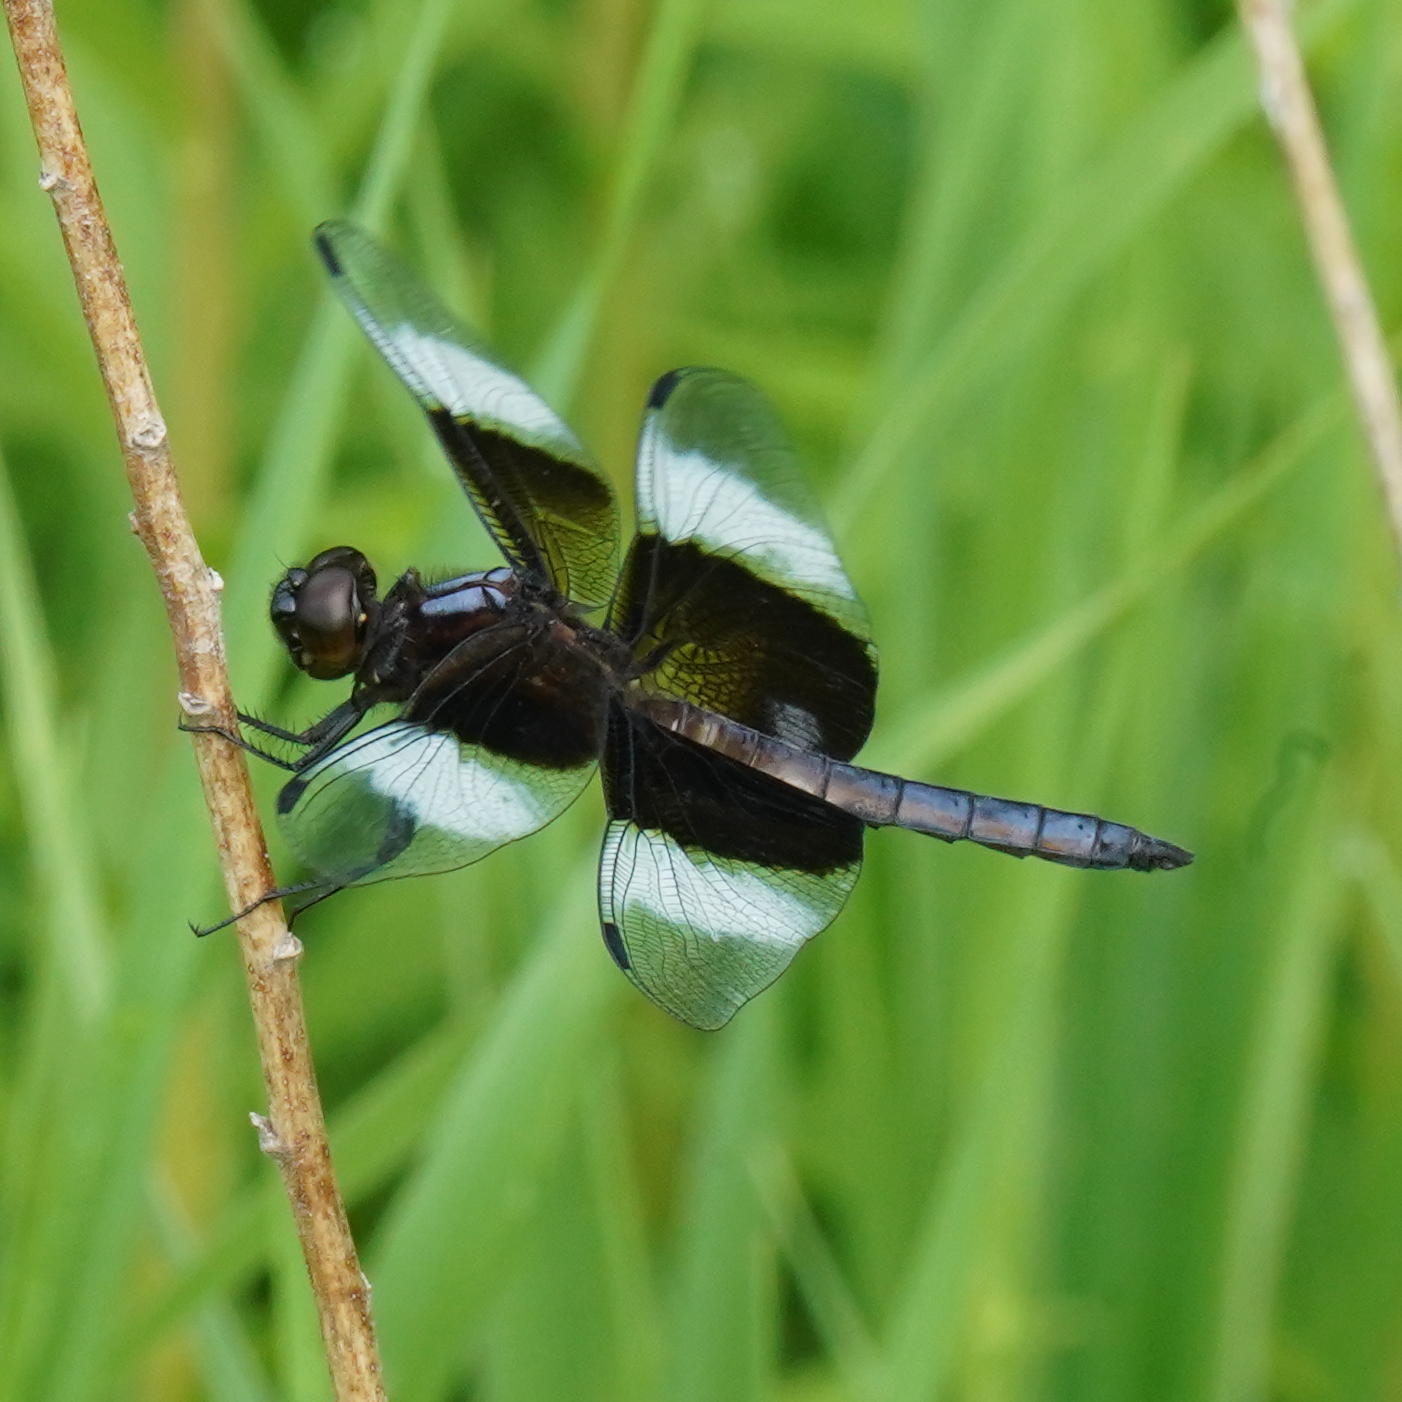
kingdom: Animalia
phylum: Arthropoda
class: Insecta
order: Odonata
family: Libellulidae
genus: Libellula
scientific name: Libellula luctuosa
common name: Widow skimmer
